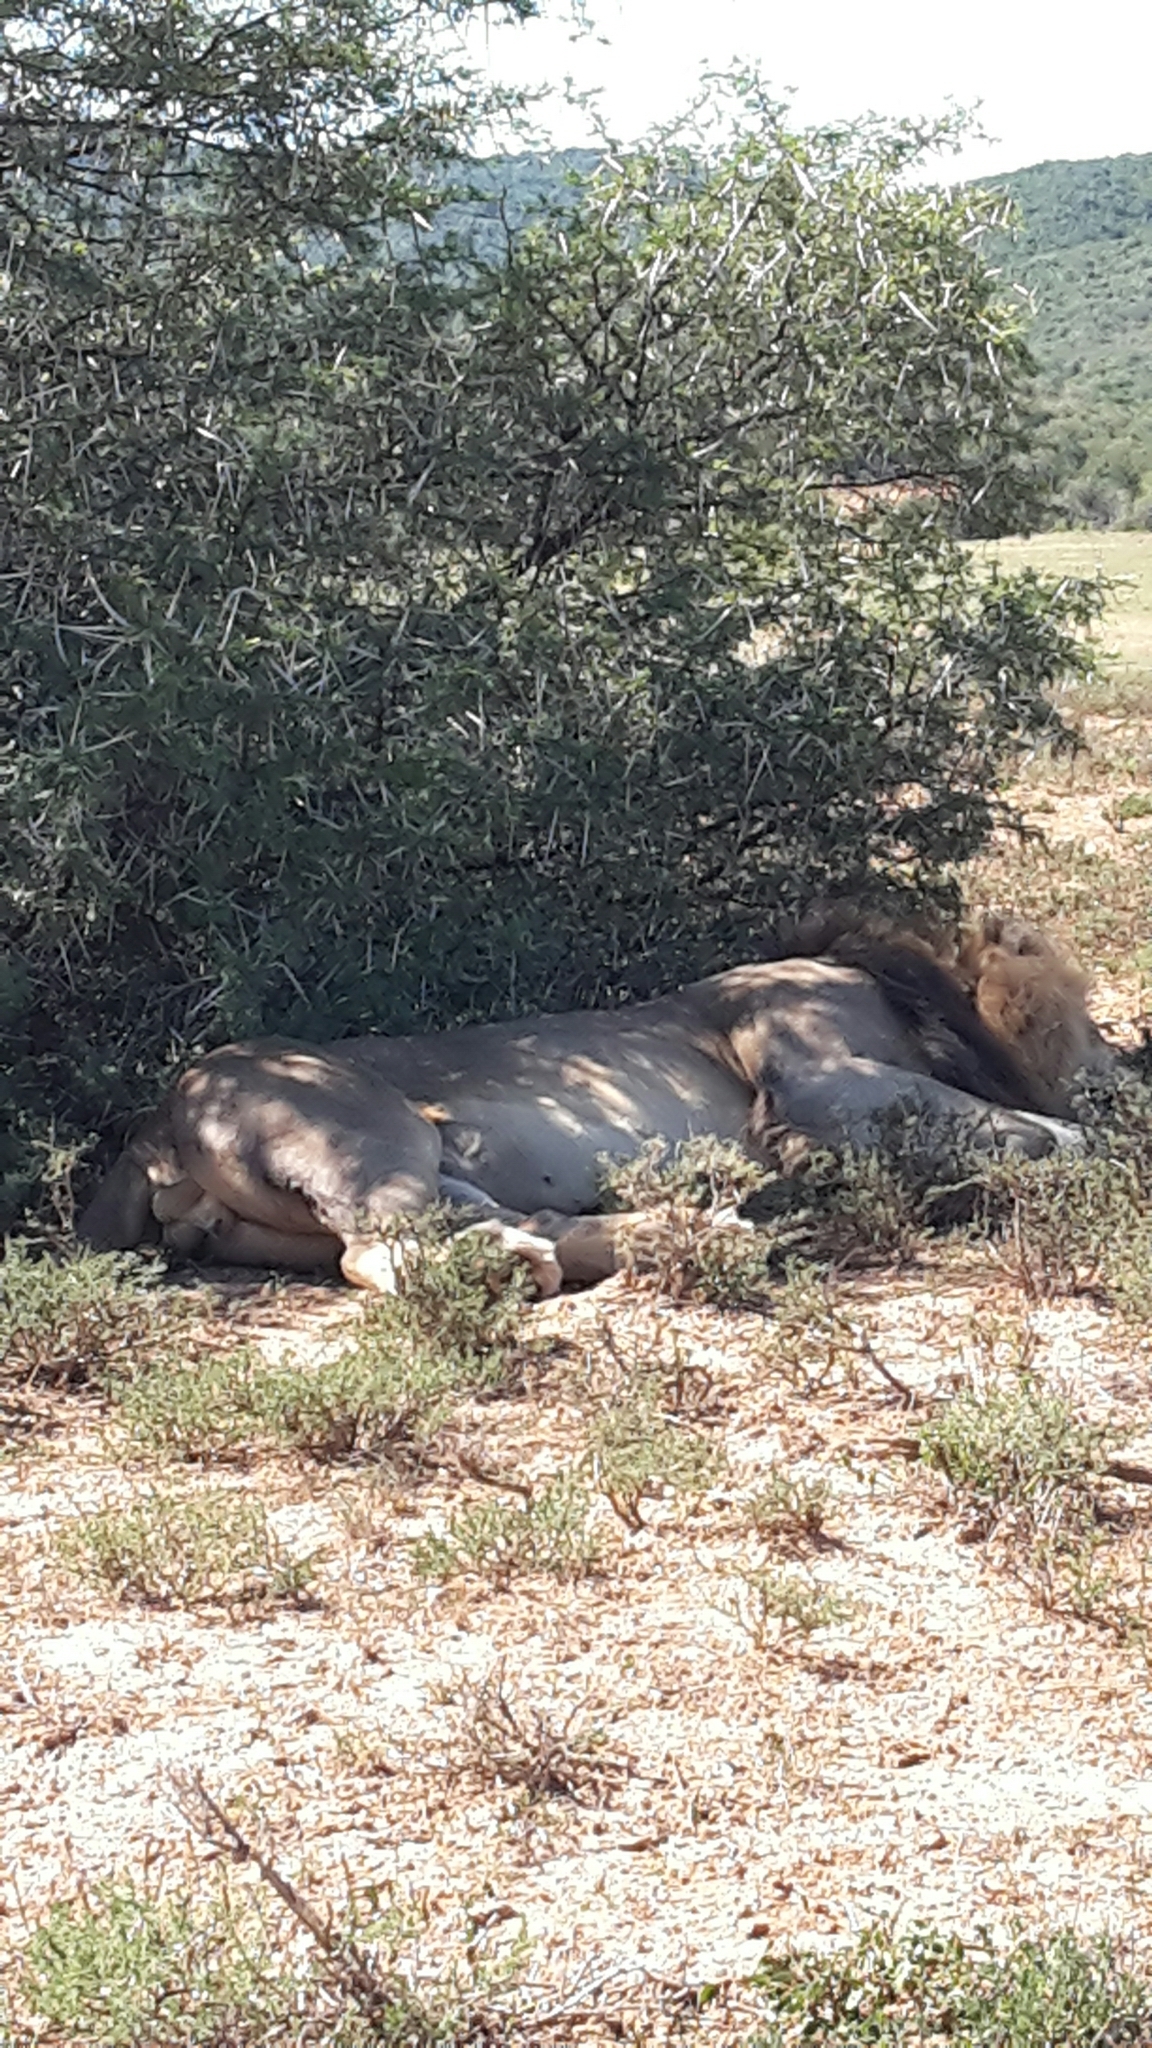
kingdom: Animalia
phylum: Chordata
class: Mammalia
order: Carnivora
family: Felidae
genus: Panthera
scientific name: Panthera leo
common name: Lion
